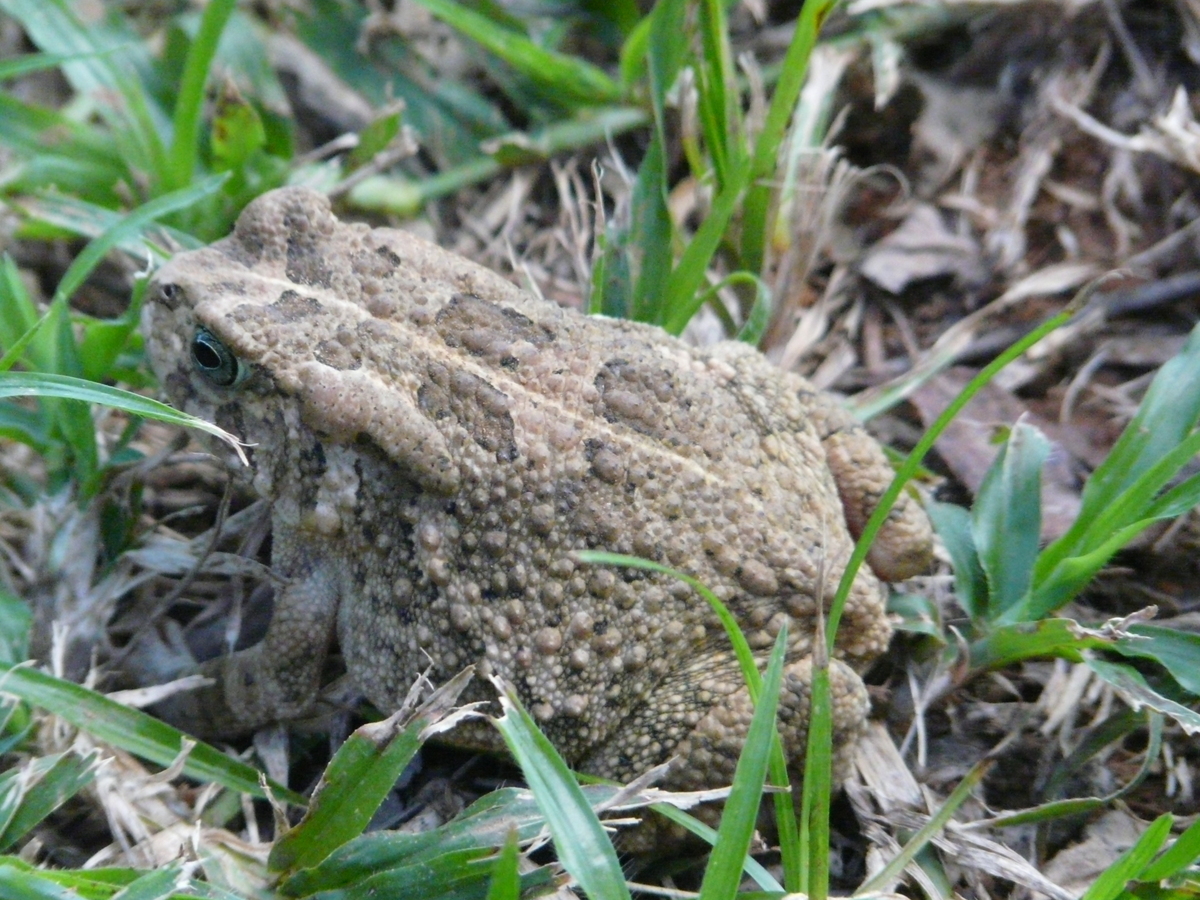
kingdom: Animalia
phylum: Chordata
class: Amphibia
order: Anura
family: Bufonidae
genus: Sclerophrys
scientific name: Sclerophrys gutturalis
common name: African common toad
